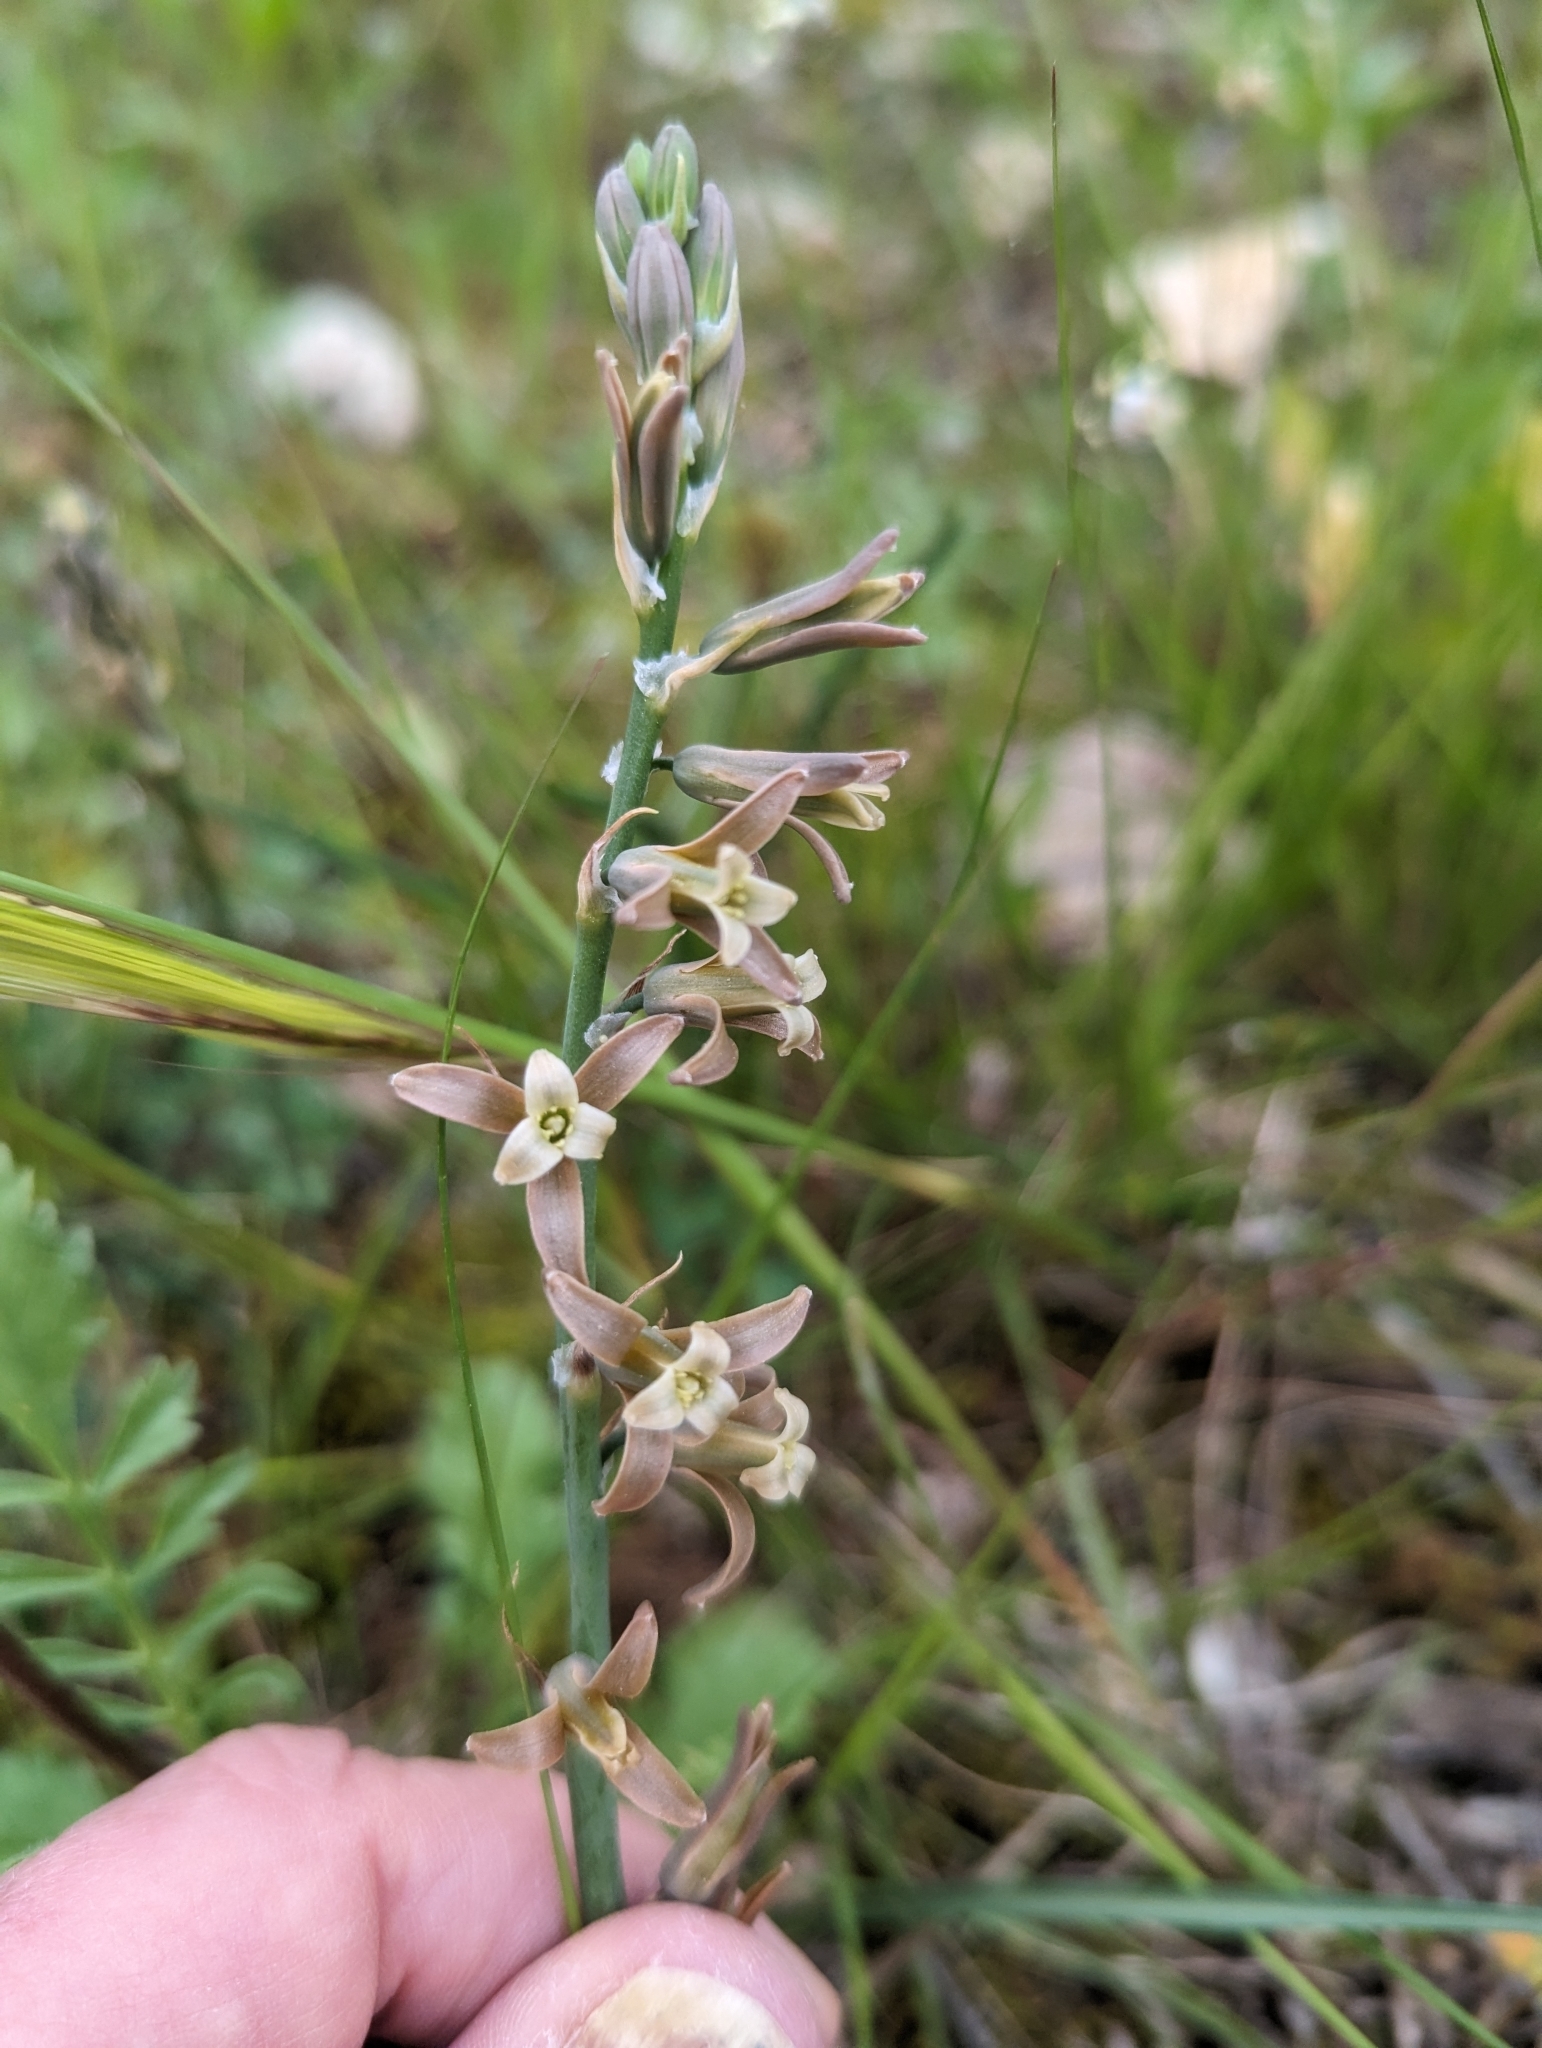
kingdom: Plantae
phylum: Tracheophyta
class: Liliopsida
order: Asparagales
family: Asparagaceae
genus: Dipcadi
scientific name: Dipcadi serotinum
